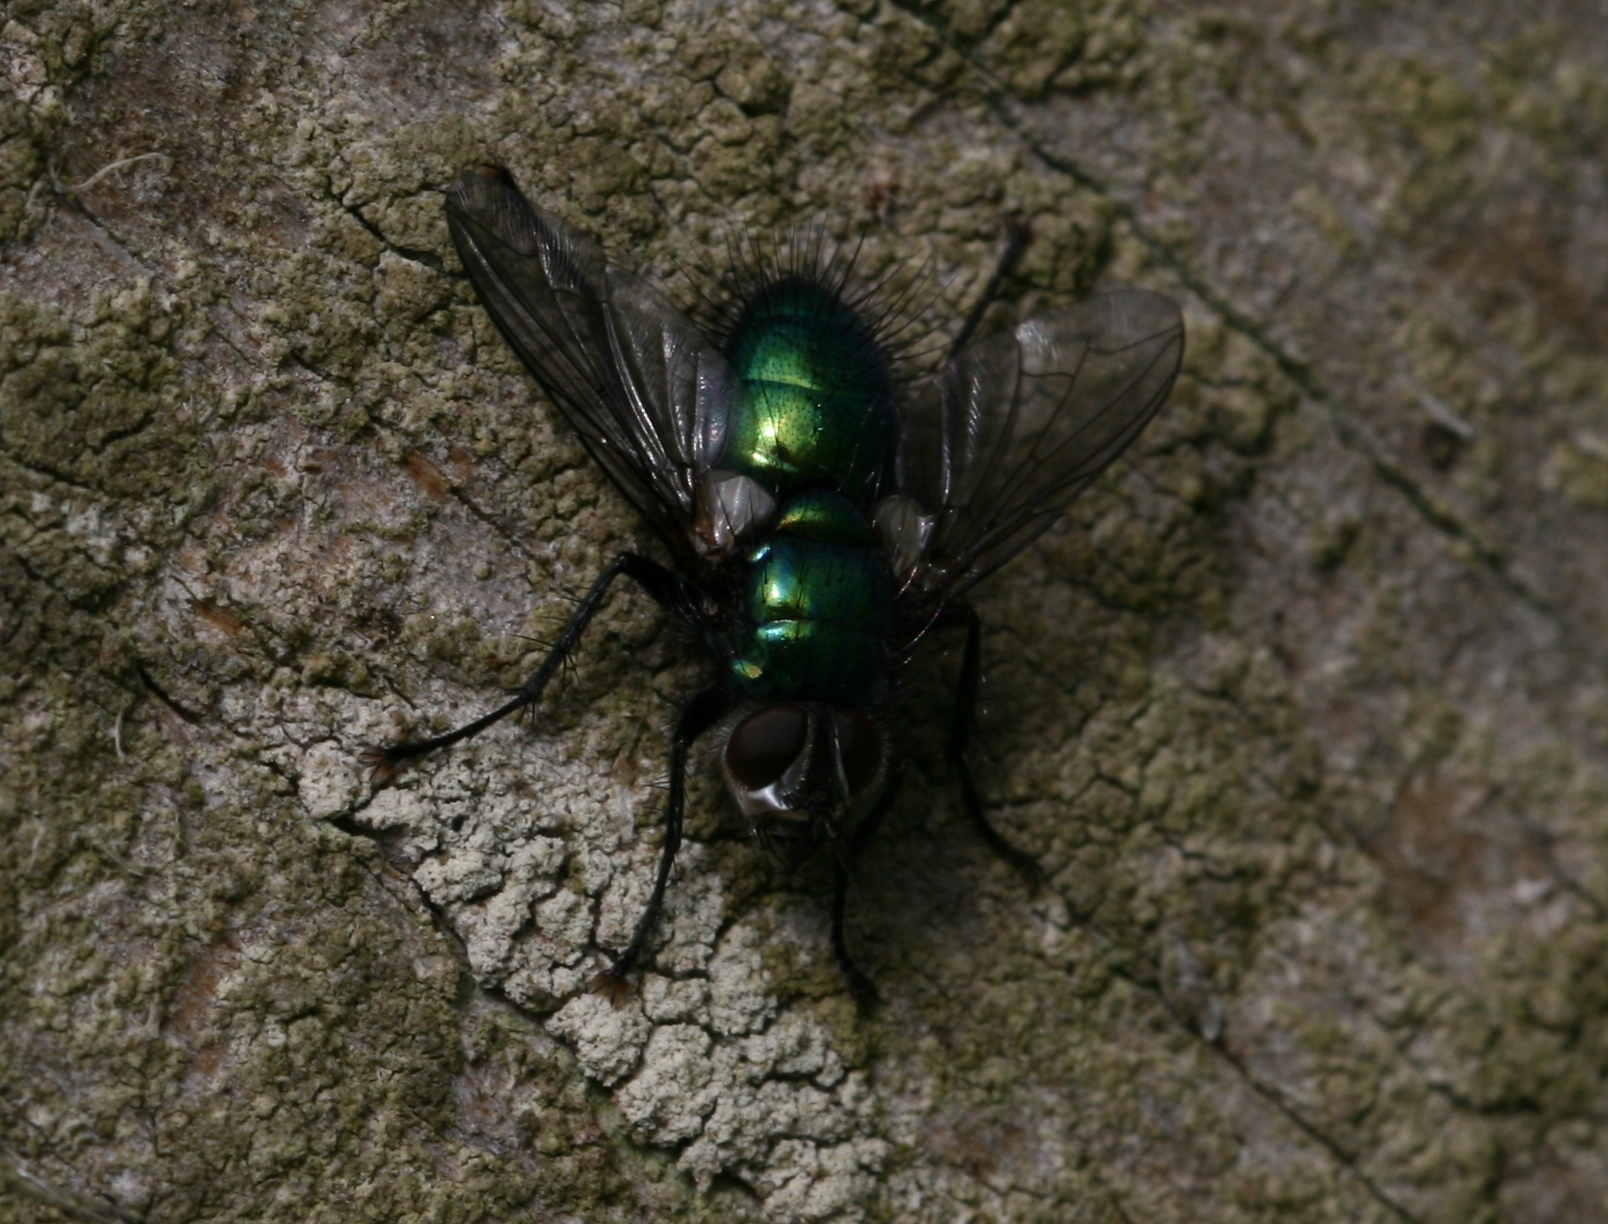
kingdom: Animalia
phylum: Arthropoda
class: Insecta
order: Diptera
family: Tachinidae
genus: Gymnocheta
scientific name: Gymnocheta viridis
